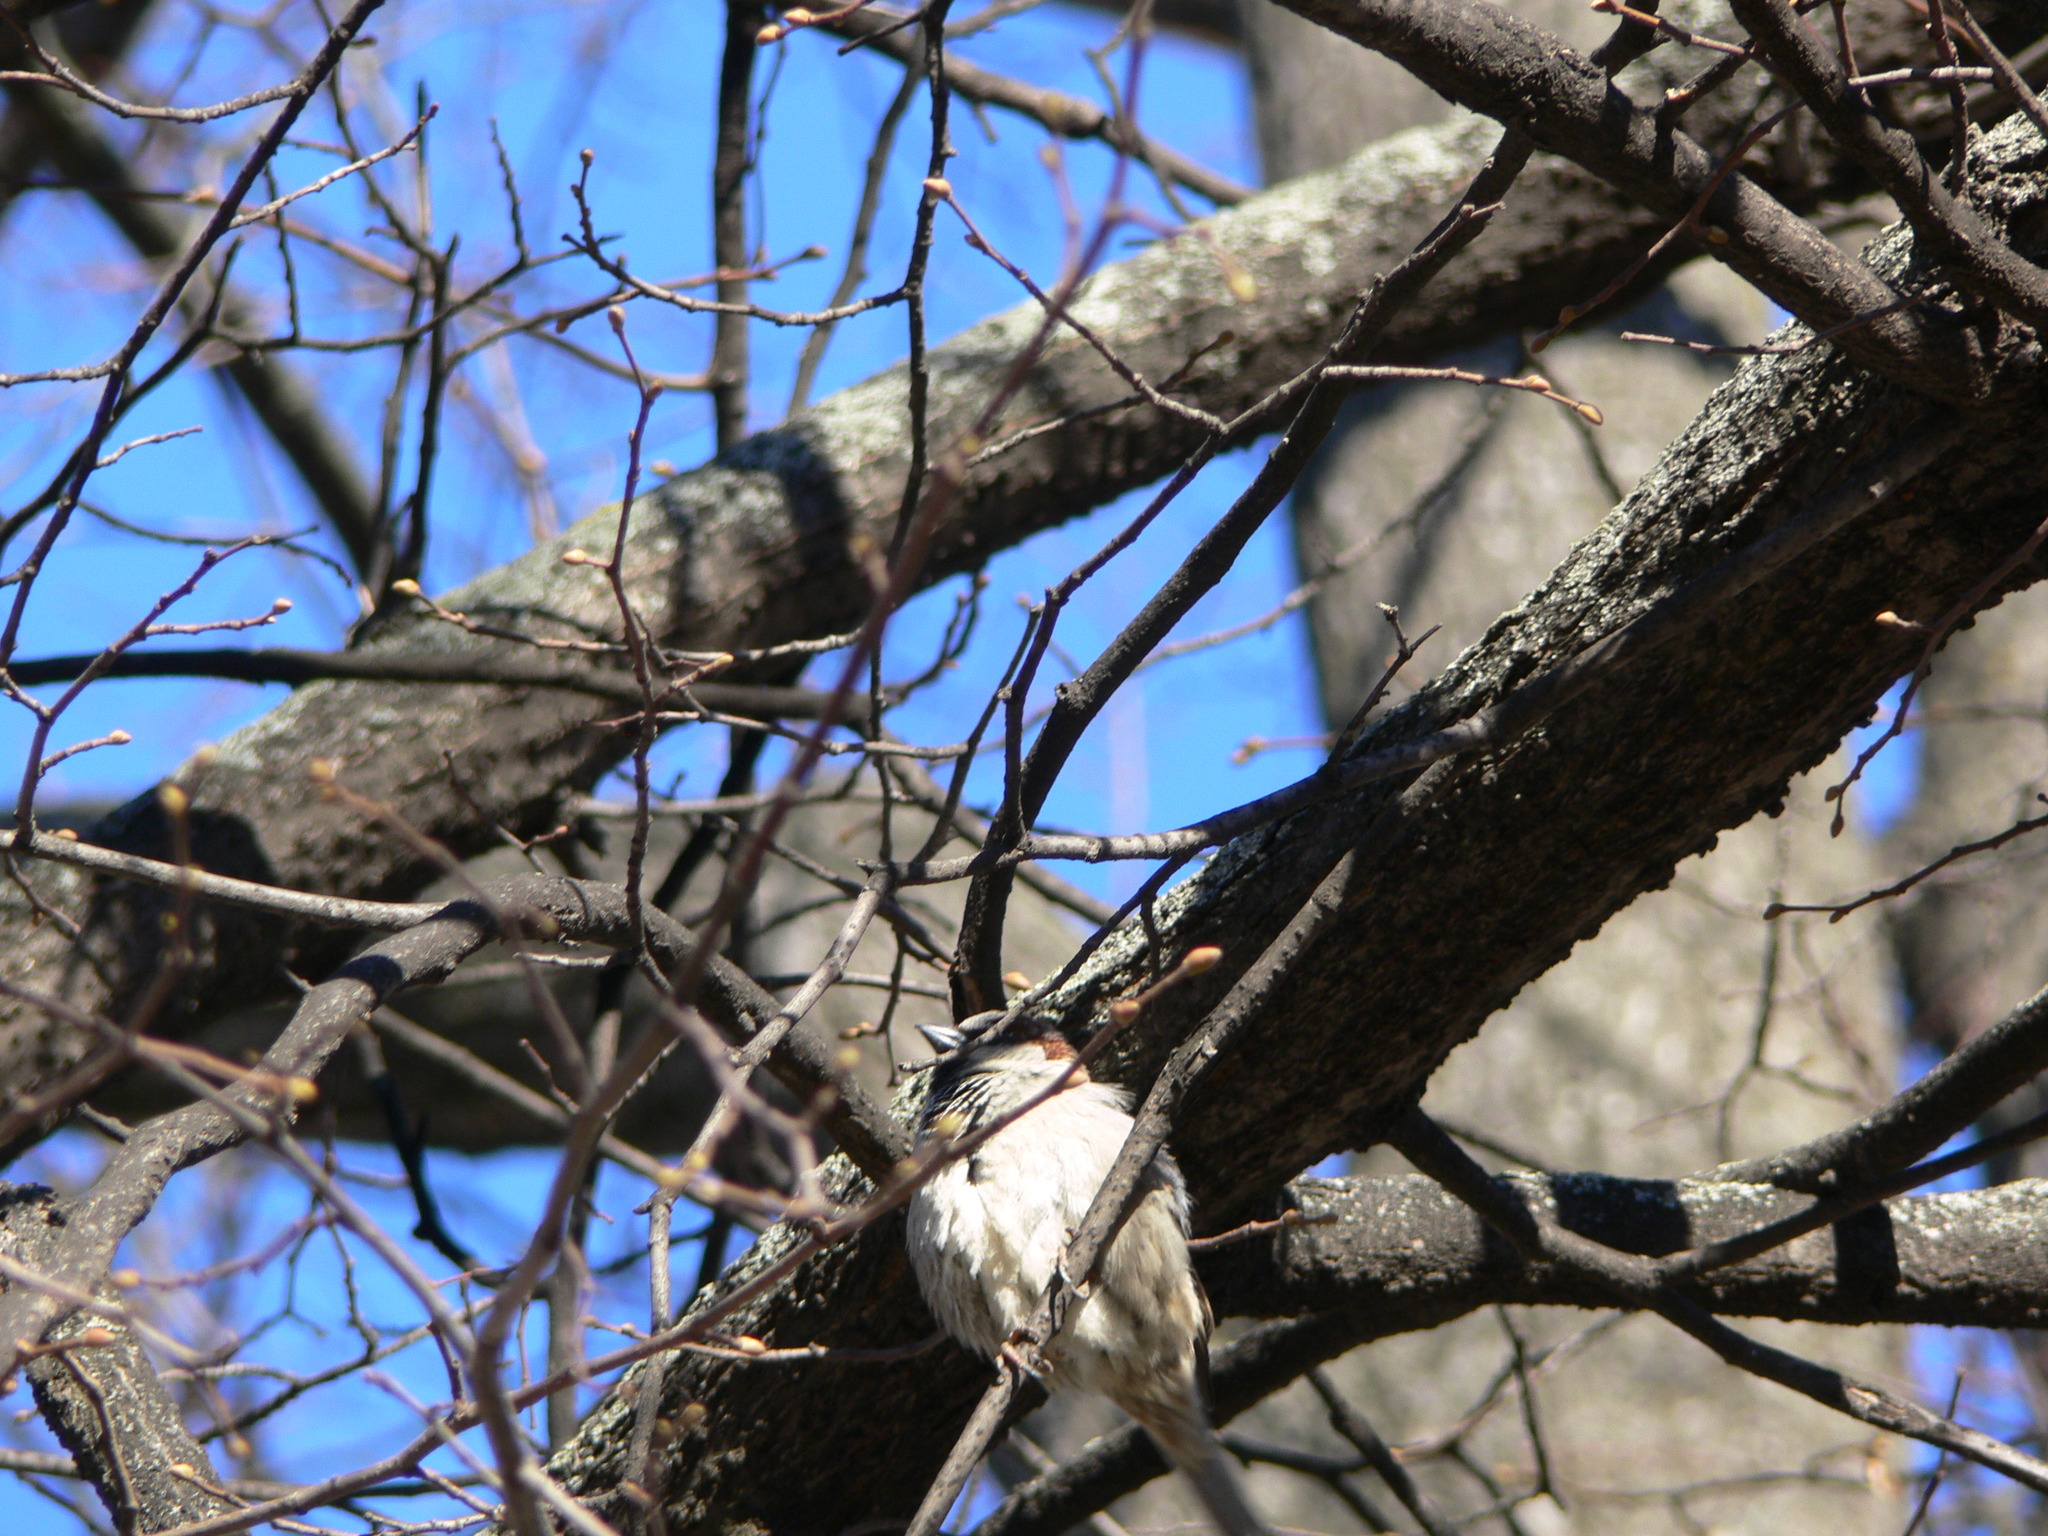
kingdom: Animalia
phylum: Chordata
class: Aves
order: Passeriformes
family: Passeridae
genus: Passer
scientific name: Passer domesticus
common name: House sparrow
